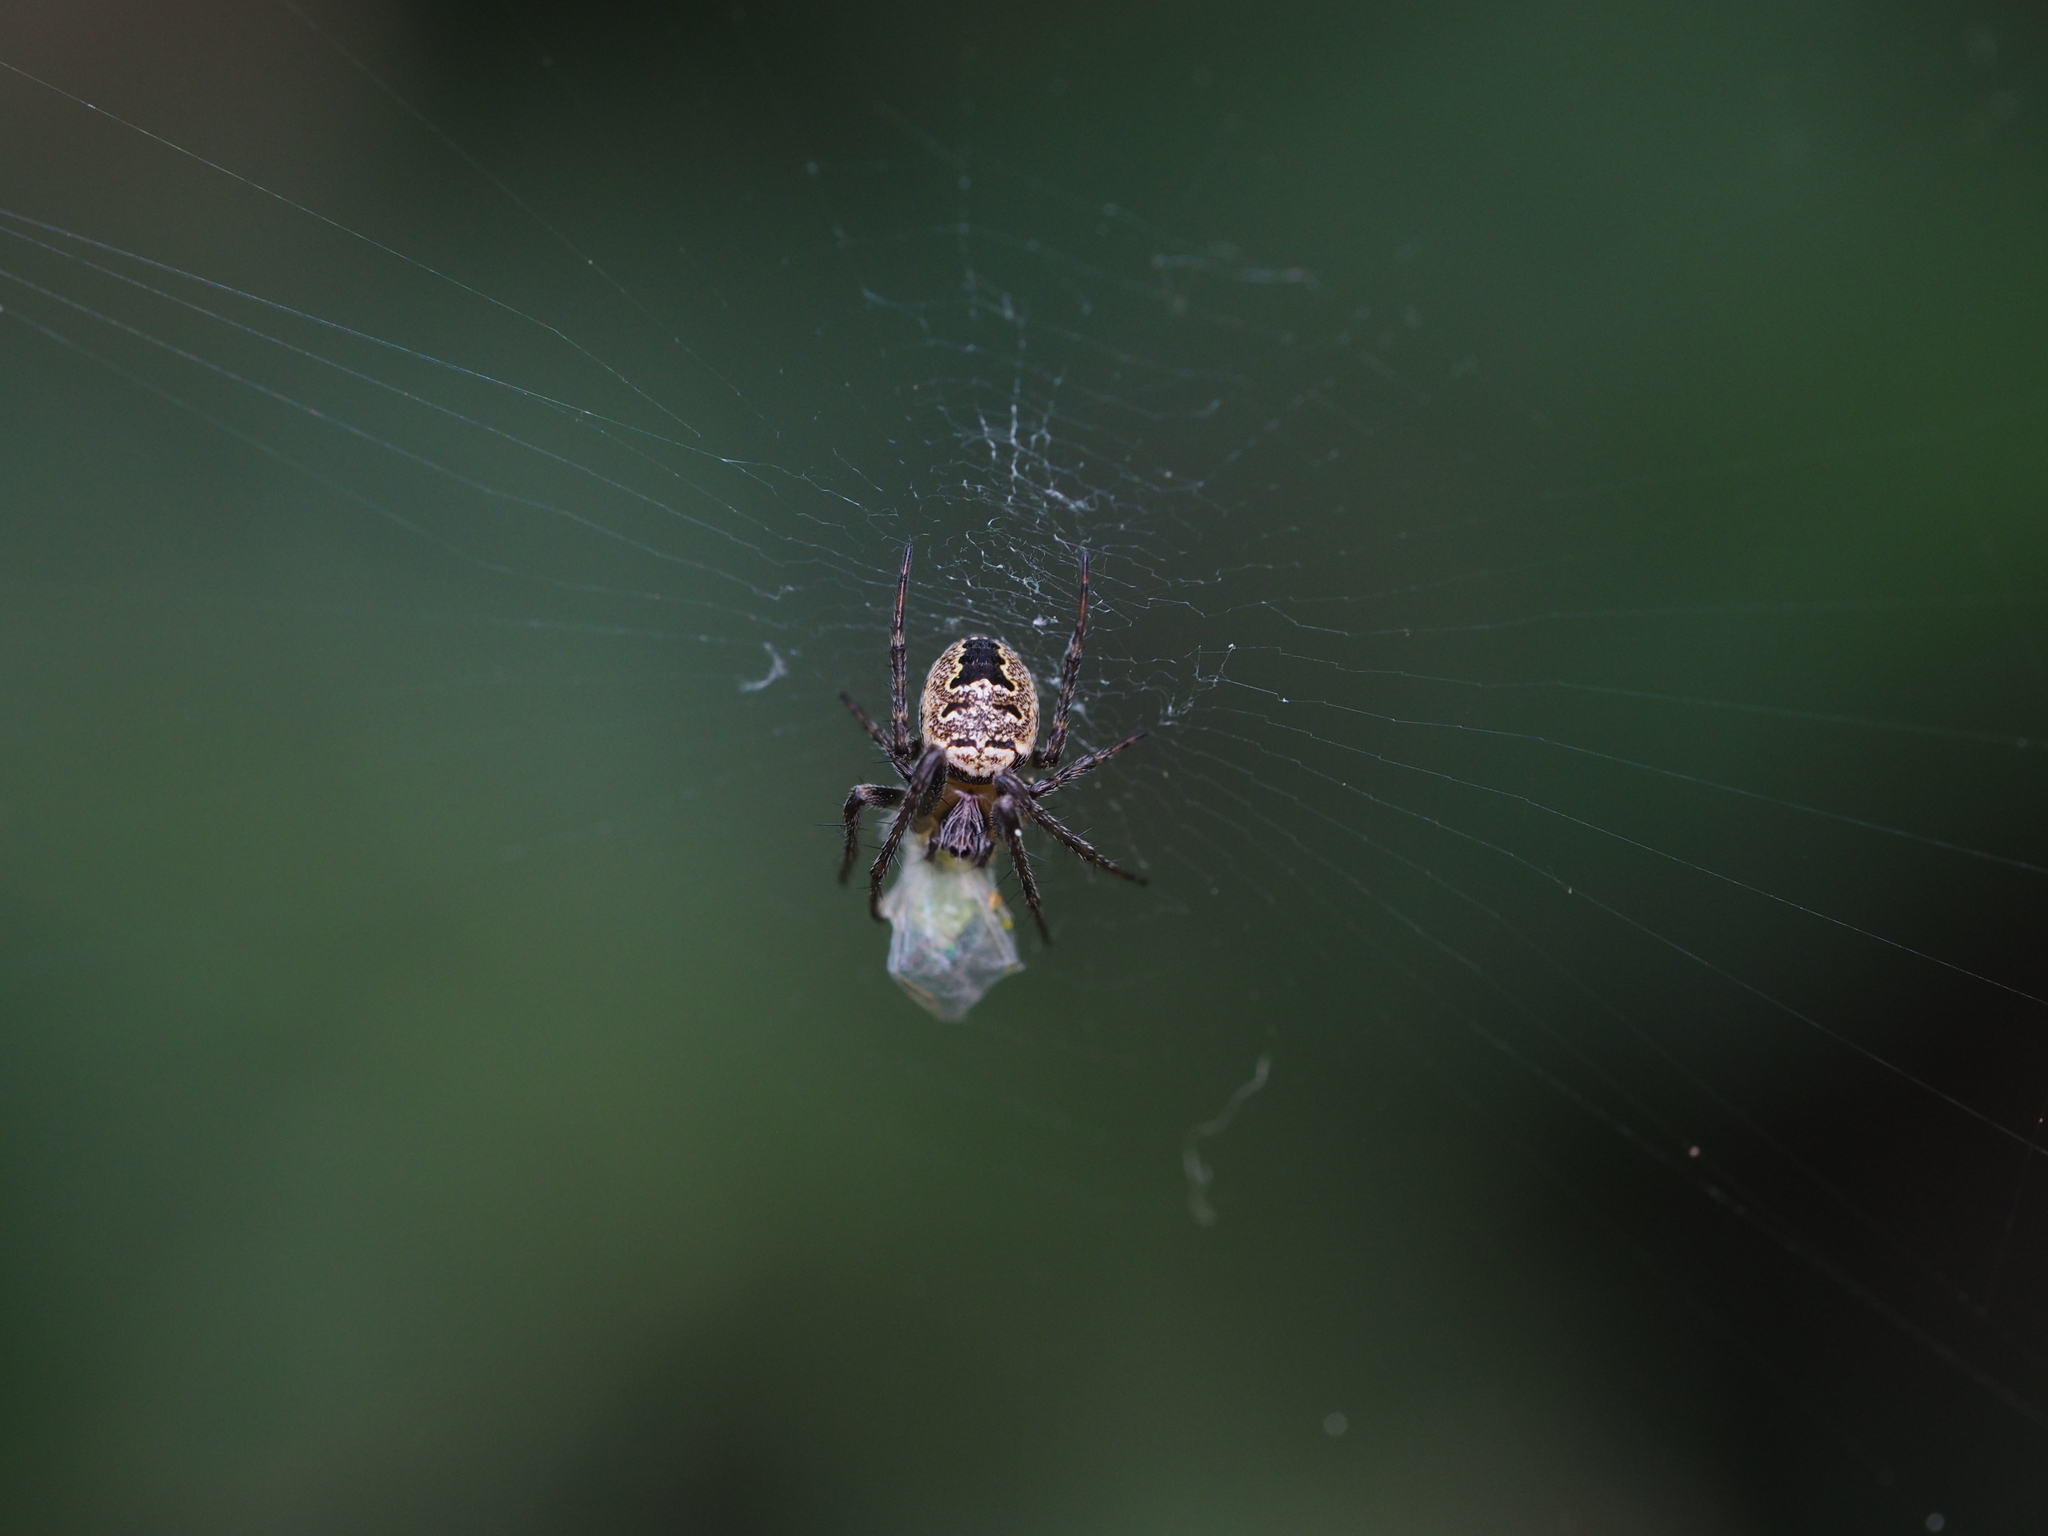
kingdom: Animalia
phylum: Arthropoda
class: Arachnida
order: Araneae
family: Araneidae
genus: Zilla
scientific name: Zilla diodia
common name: Zilla diodia
